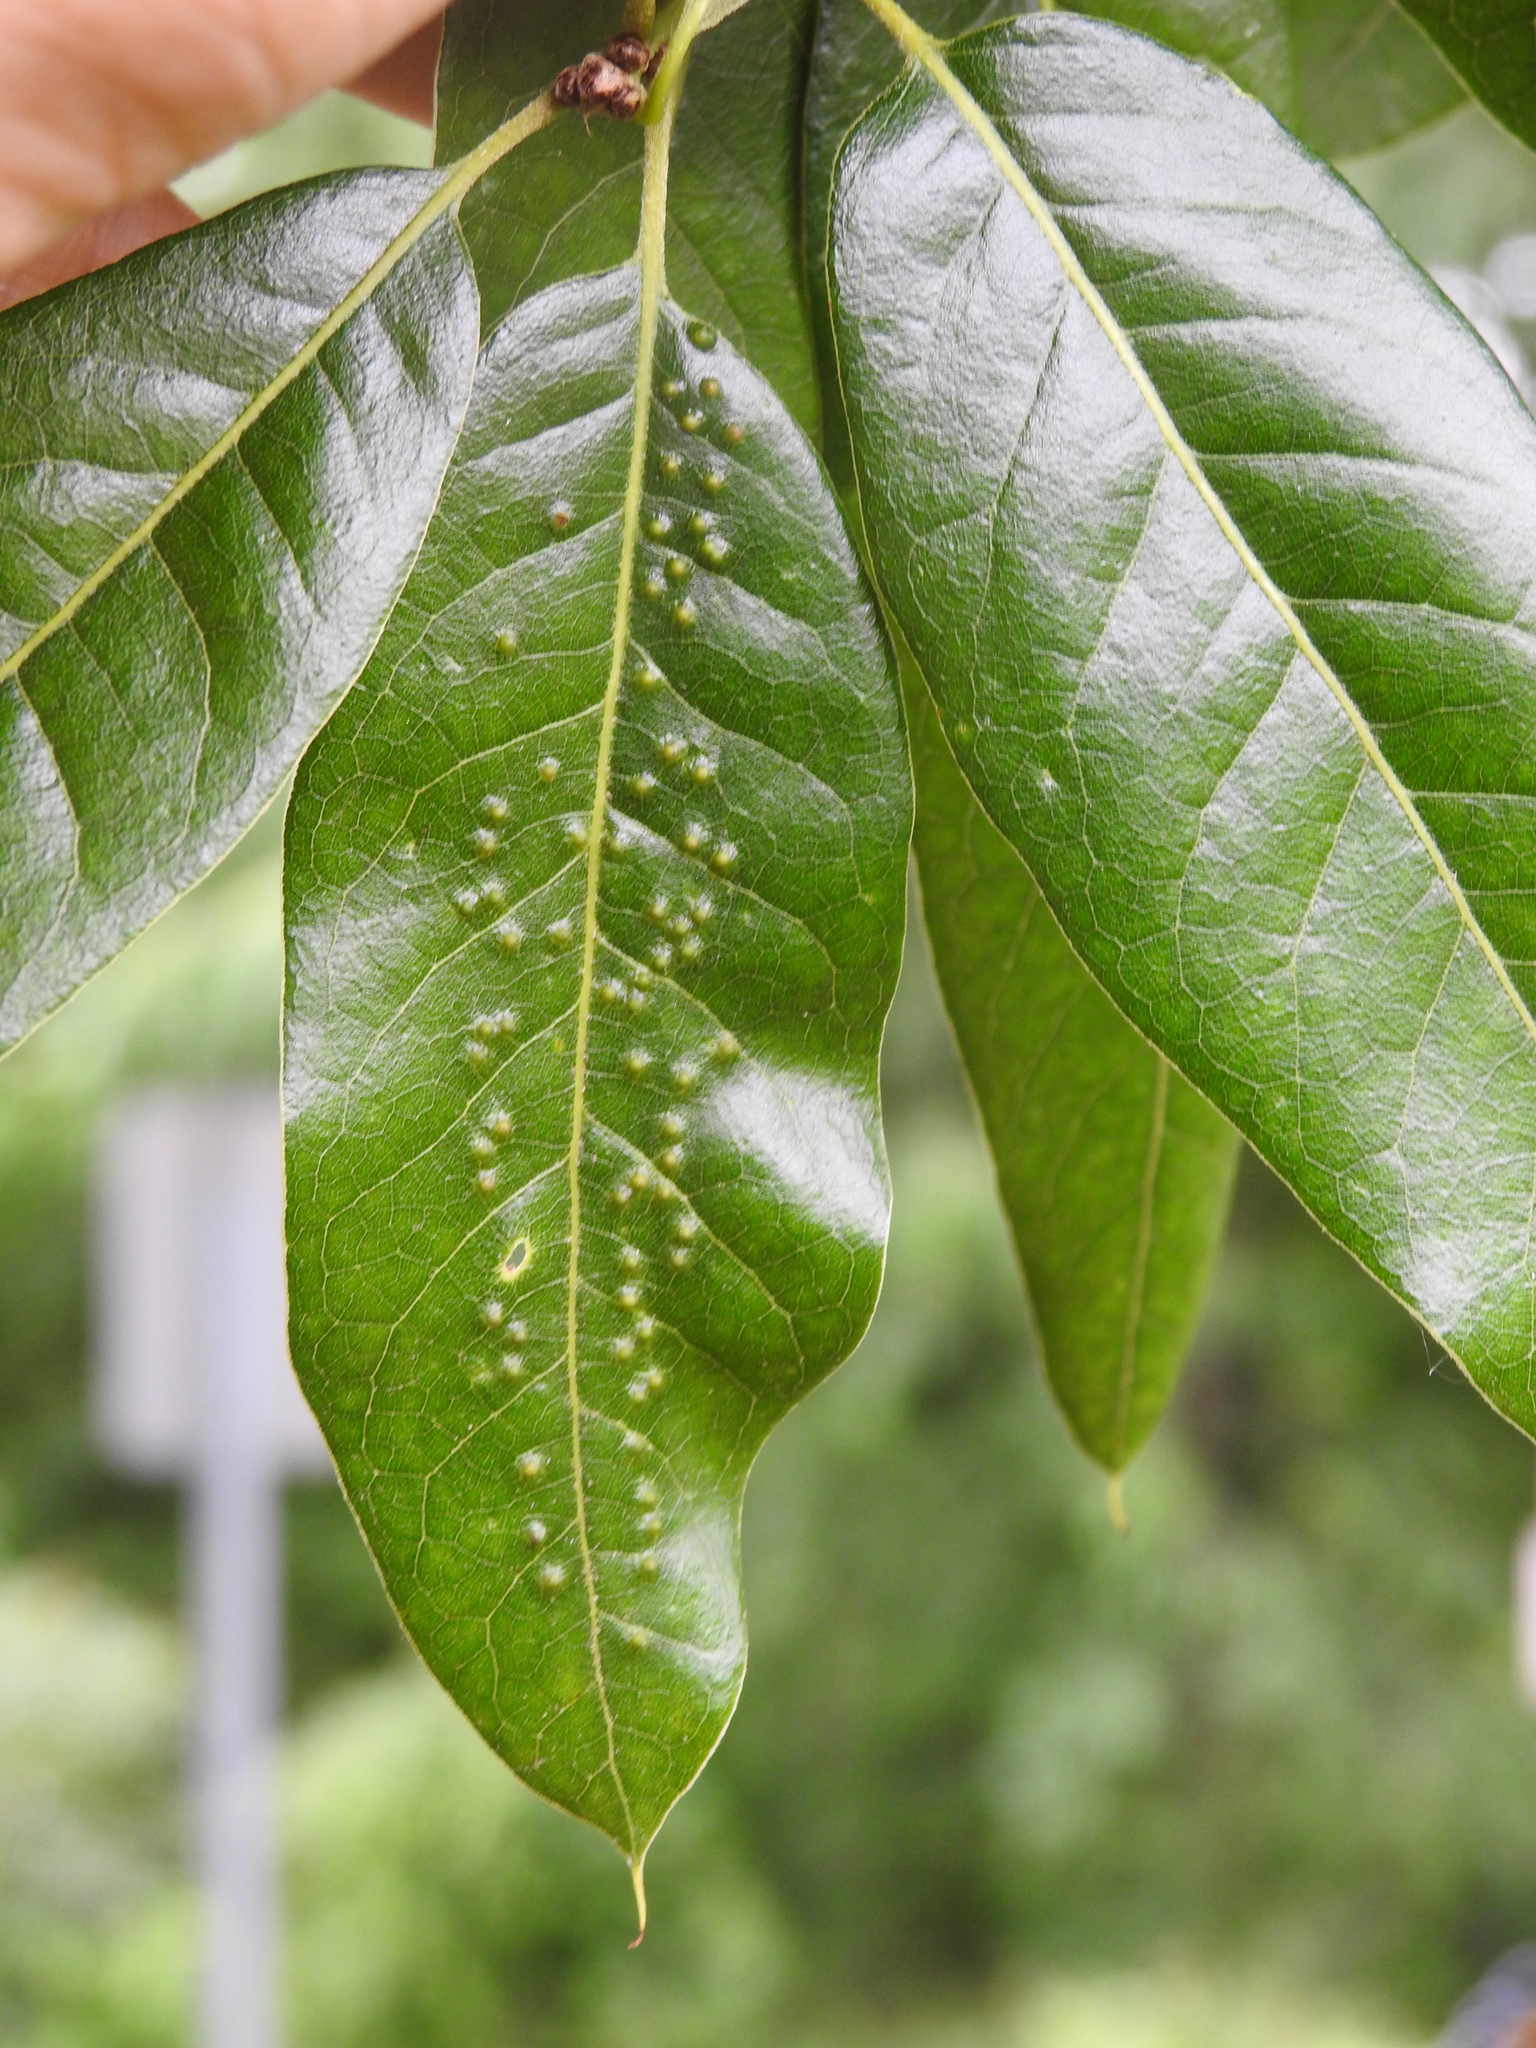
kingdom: Animalia
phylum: Arthropoda
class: Insecta
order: Hymenoptera
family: Cynipidae
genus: Callirhytis
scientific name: Callirhytis
